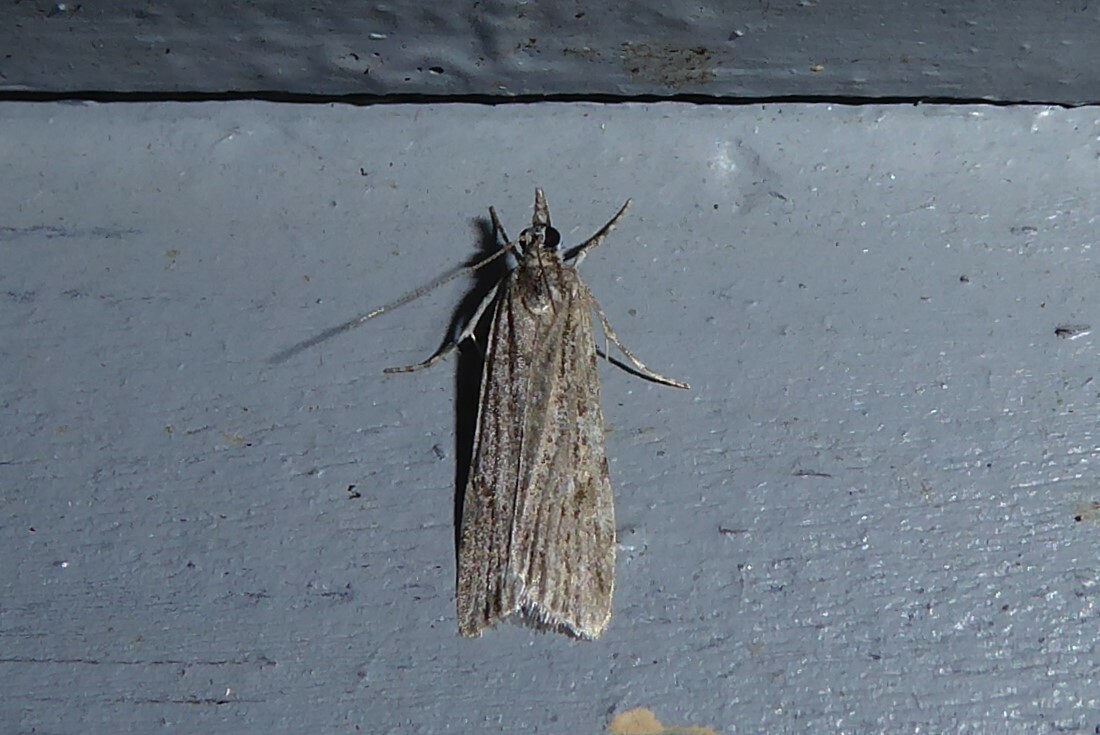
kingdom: Animalia
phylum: Arthropoda
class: Insecta
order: Lepidoptera
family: Crambidae
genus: Scoparia
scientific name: Scoparia chalicodes
